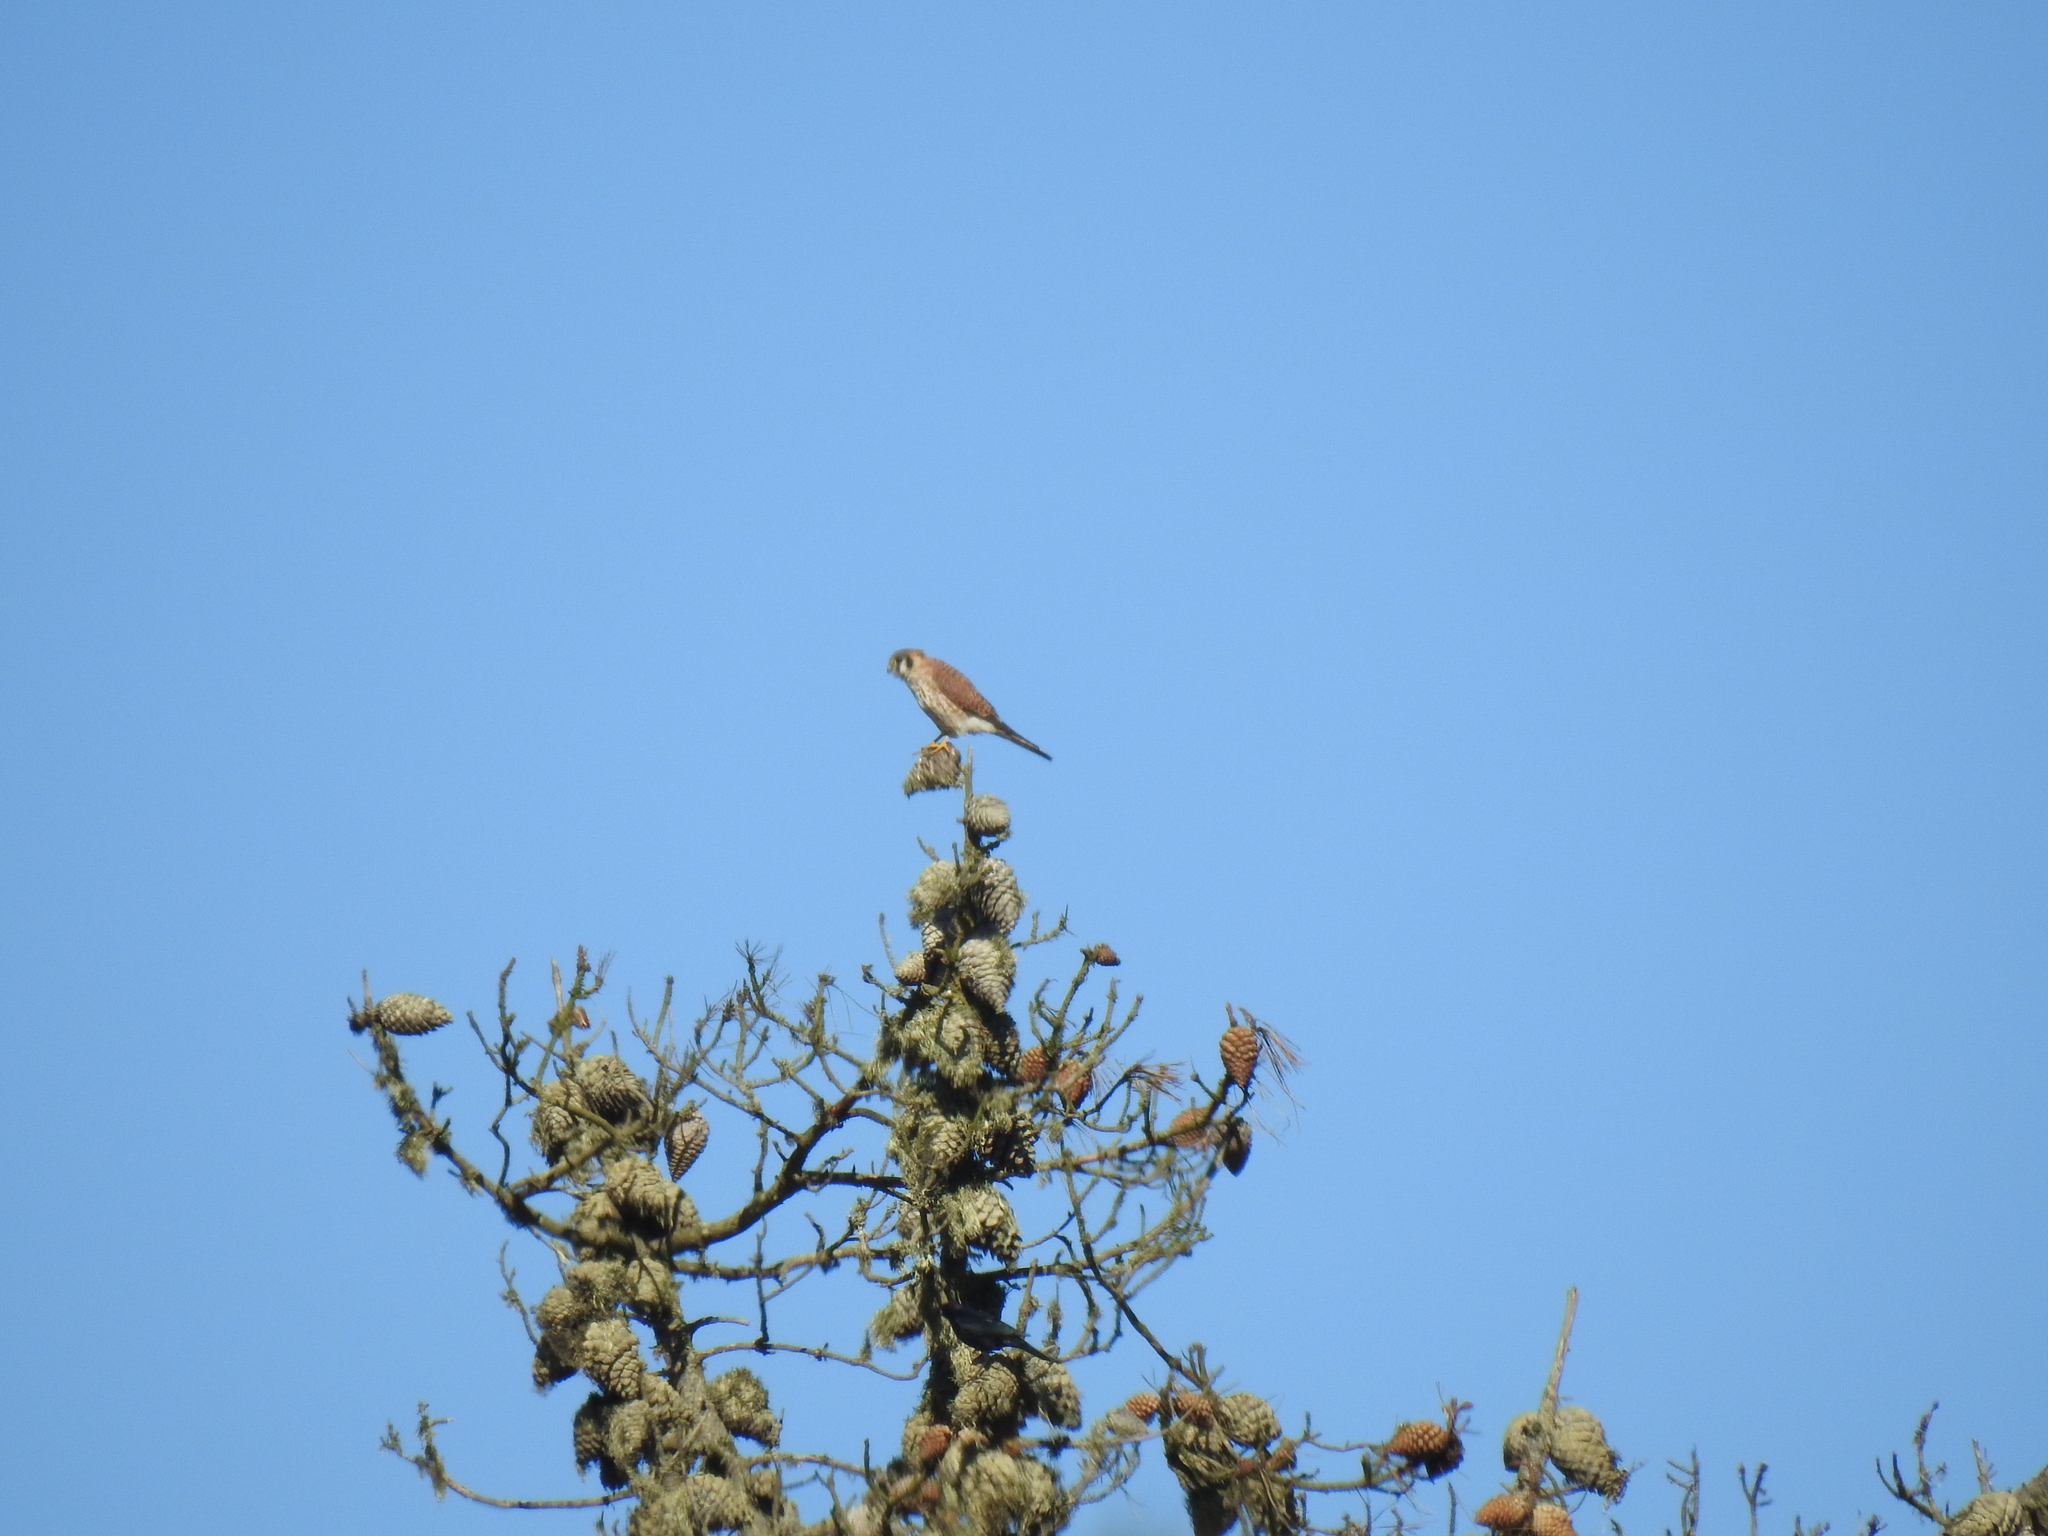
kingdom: Animalia
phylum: Chordata
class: Aves
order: Falconiformes
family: Falconidae
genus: Falco
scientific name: Falco sparverius
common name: American kestrel
